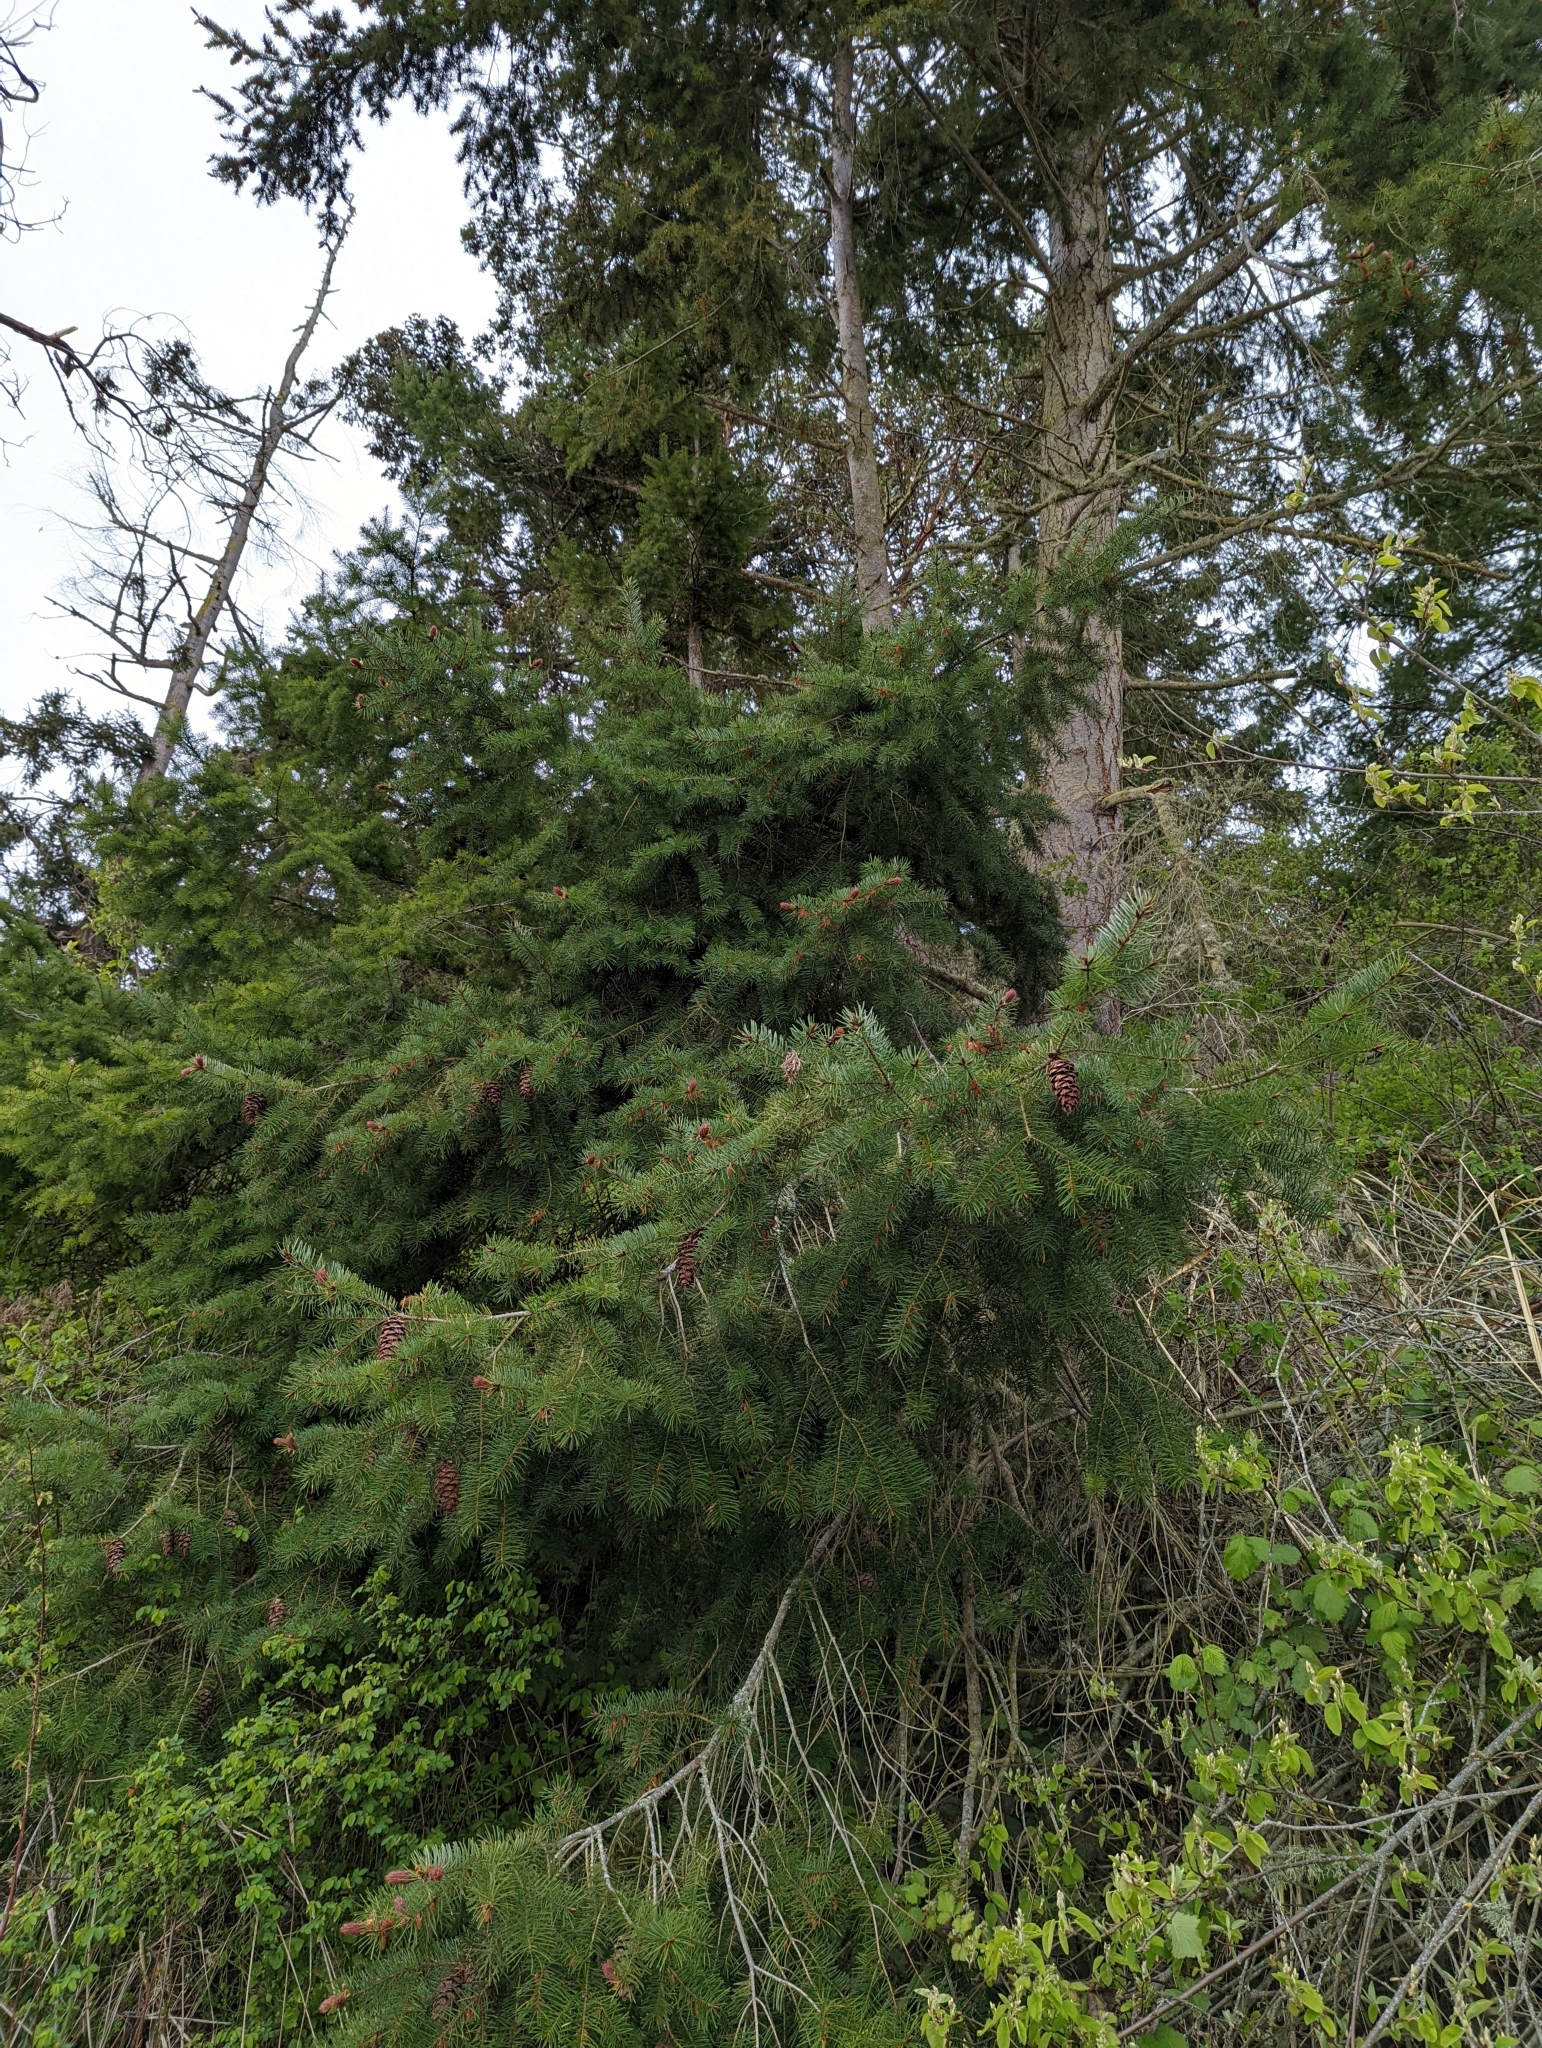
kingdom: Plantae
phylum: Tracheophyta
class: Pinopsida
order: Pinales
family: Pinaceae
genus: Pseudotsuga
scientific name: Pseudotsuga menziesii
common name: Douglas fir
